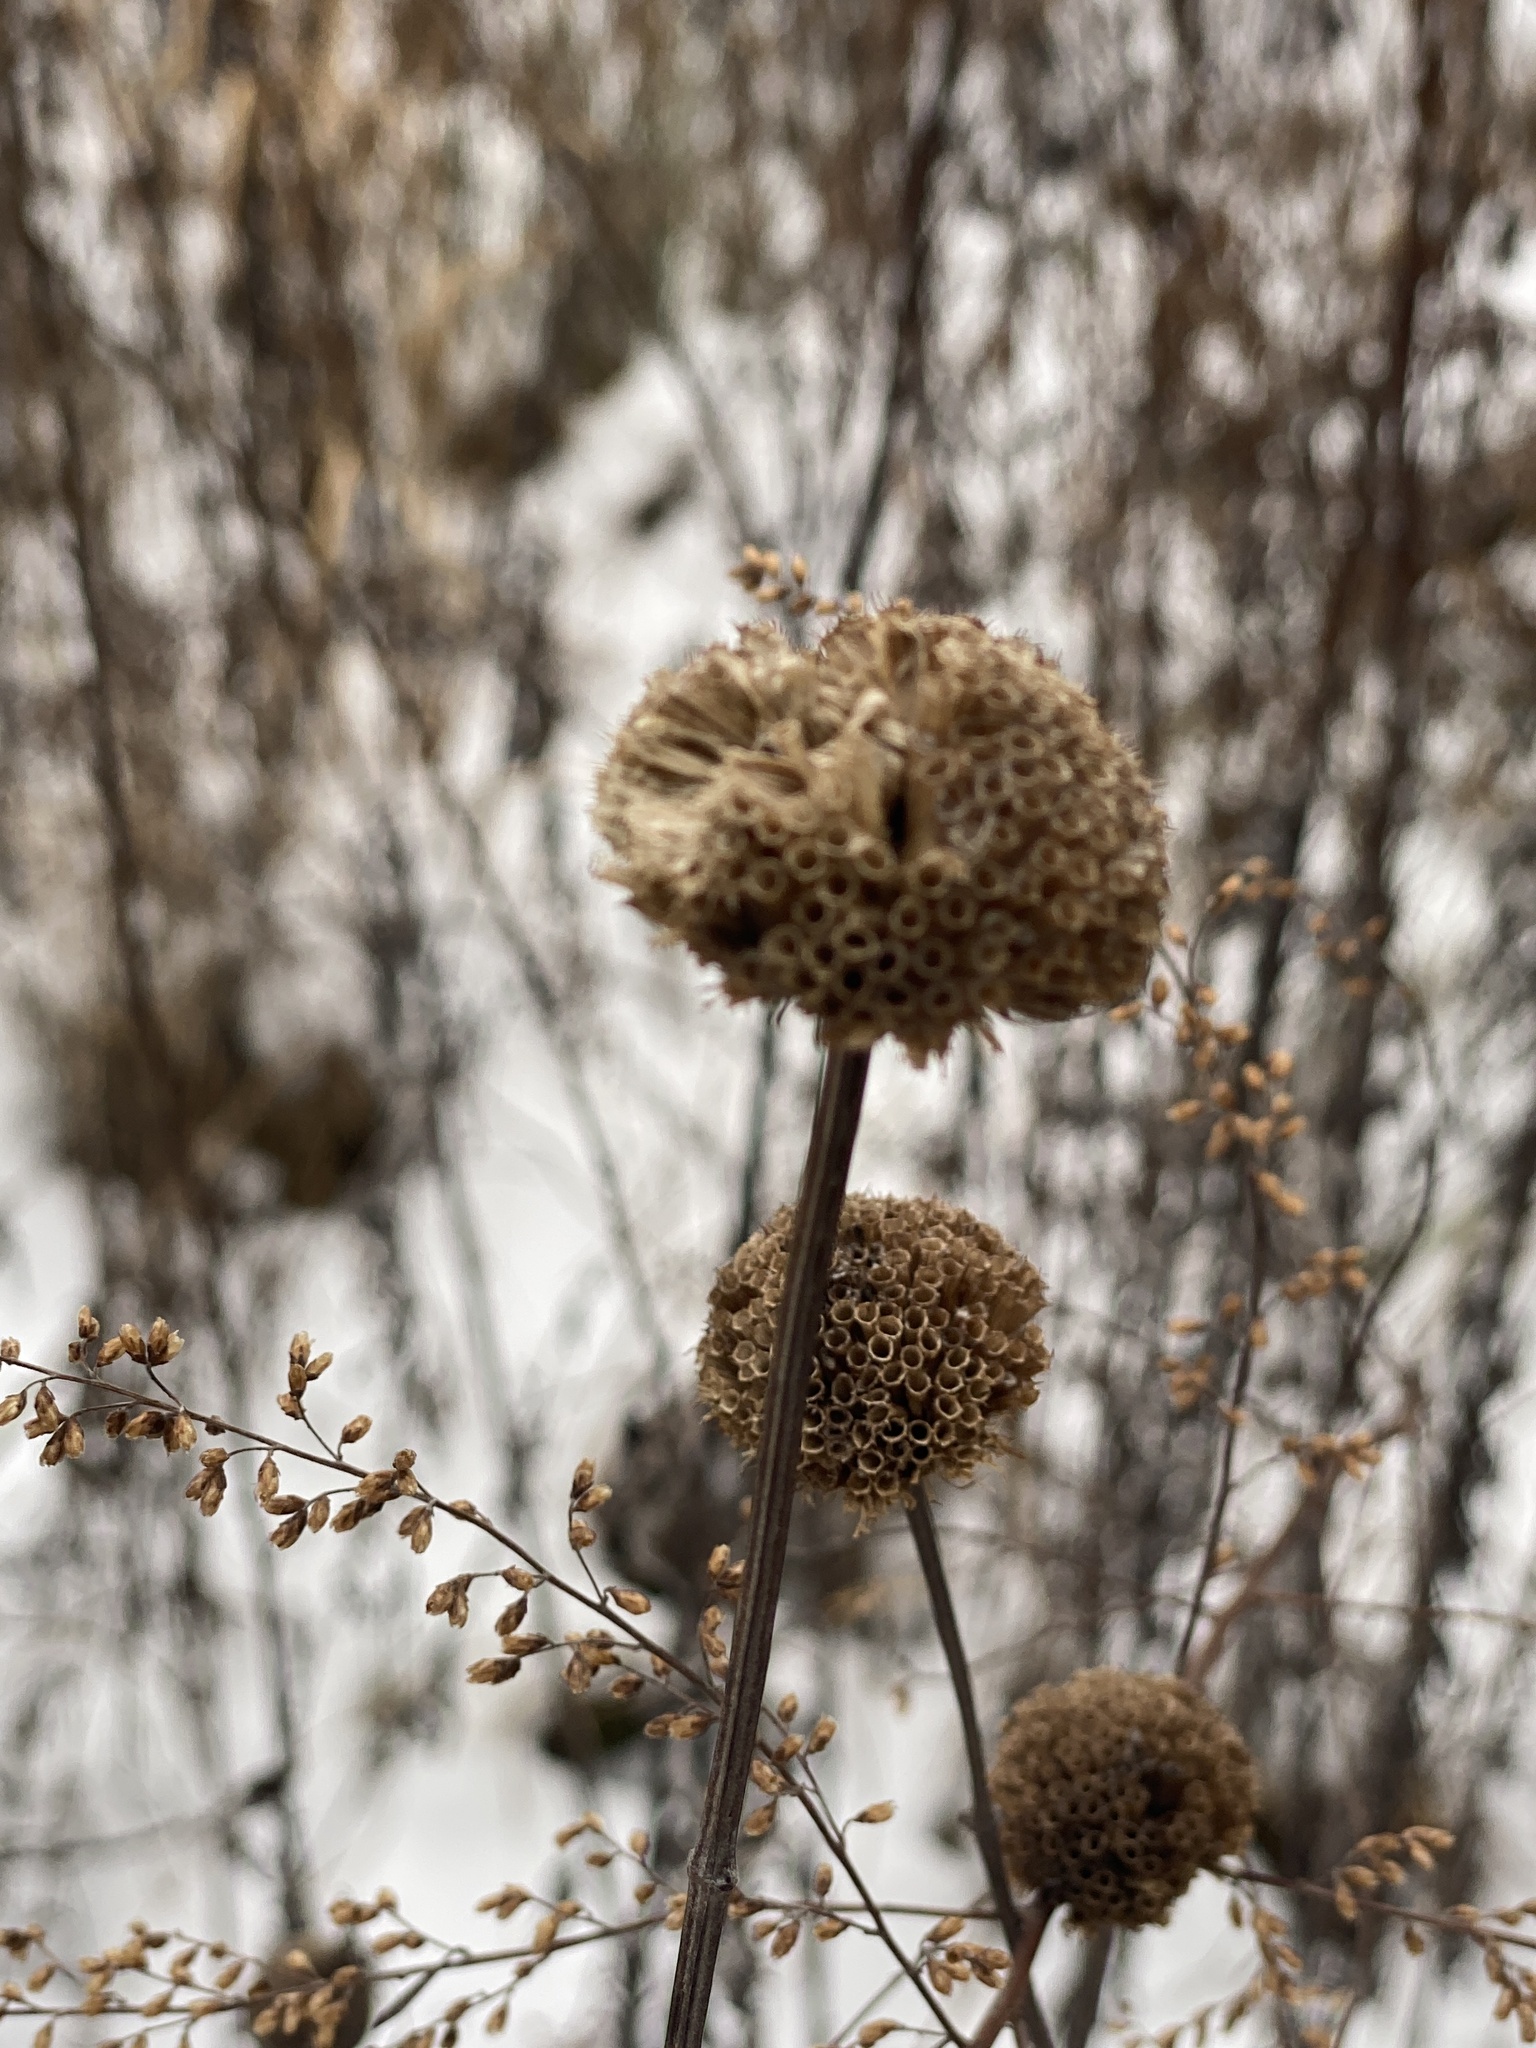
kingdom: Plantae
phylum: Tracheophyta
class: Magnoliopsida
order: Lamiales
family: Lamiaceae
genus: Monarda
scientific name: Monarda fistulosa
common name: Purple beebalm
